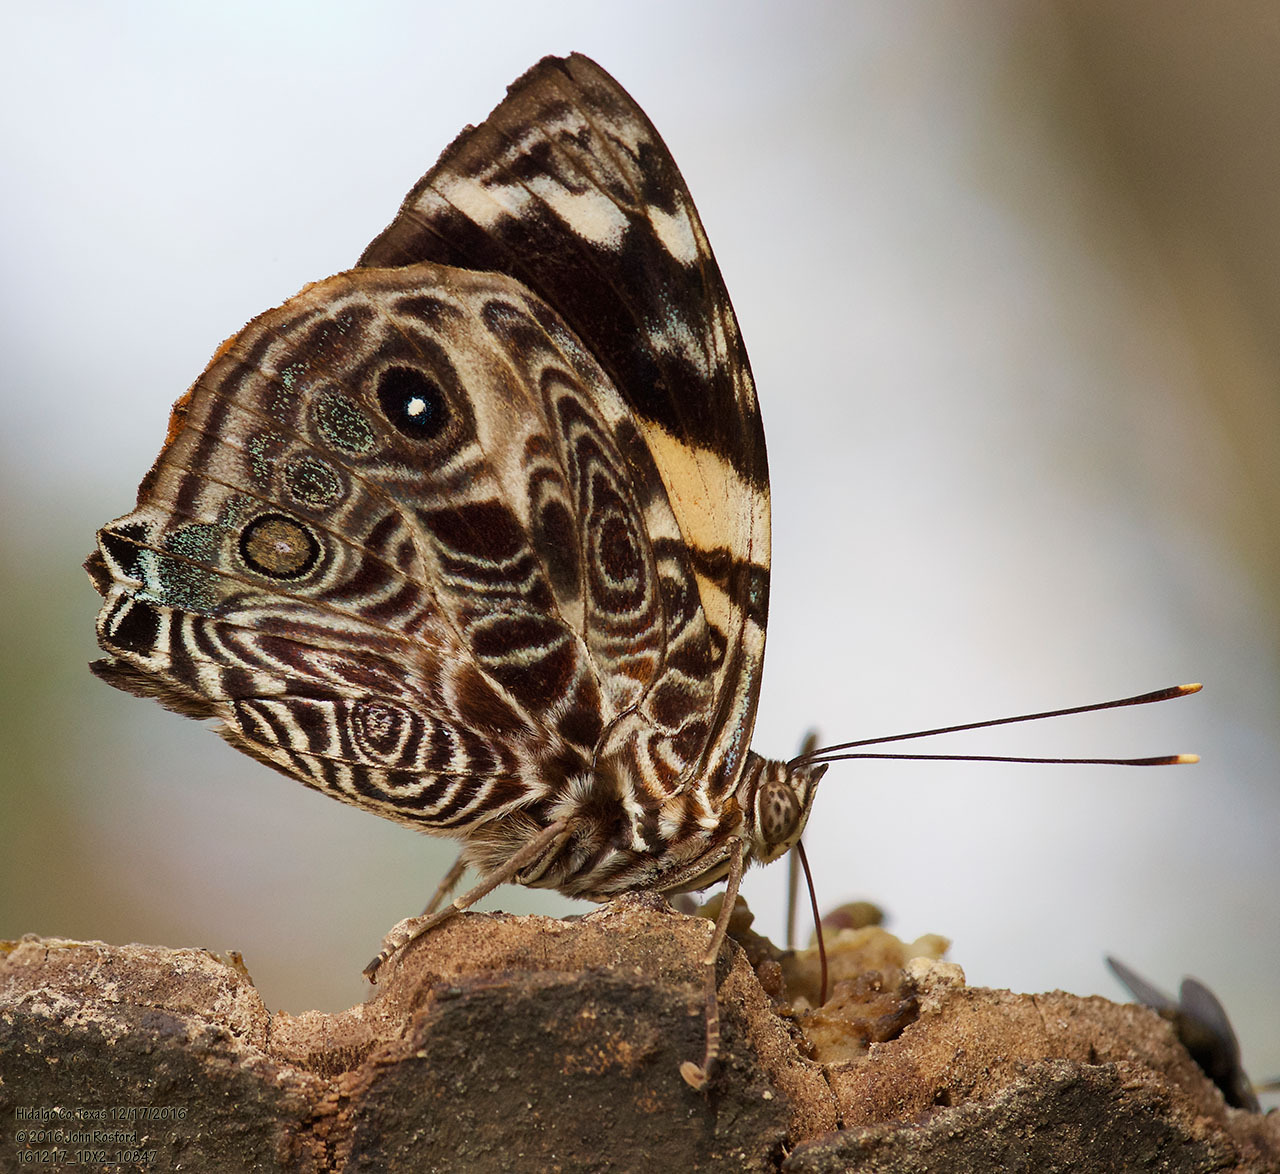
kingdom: Animalia
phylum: Arthropoda
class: Insecta
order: Lepidoptera
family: Nymphalidae
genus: Smyrna
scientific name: Smyrna blomfildia
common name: Blomfild's beauty
